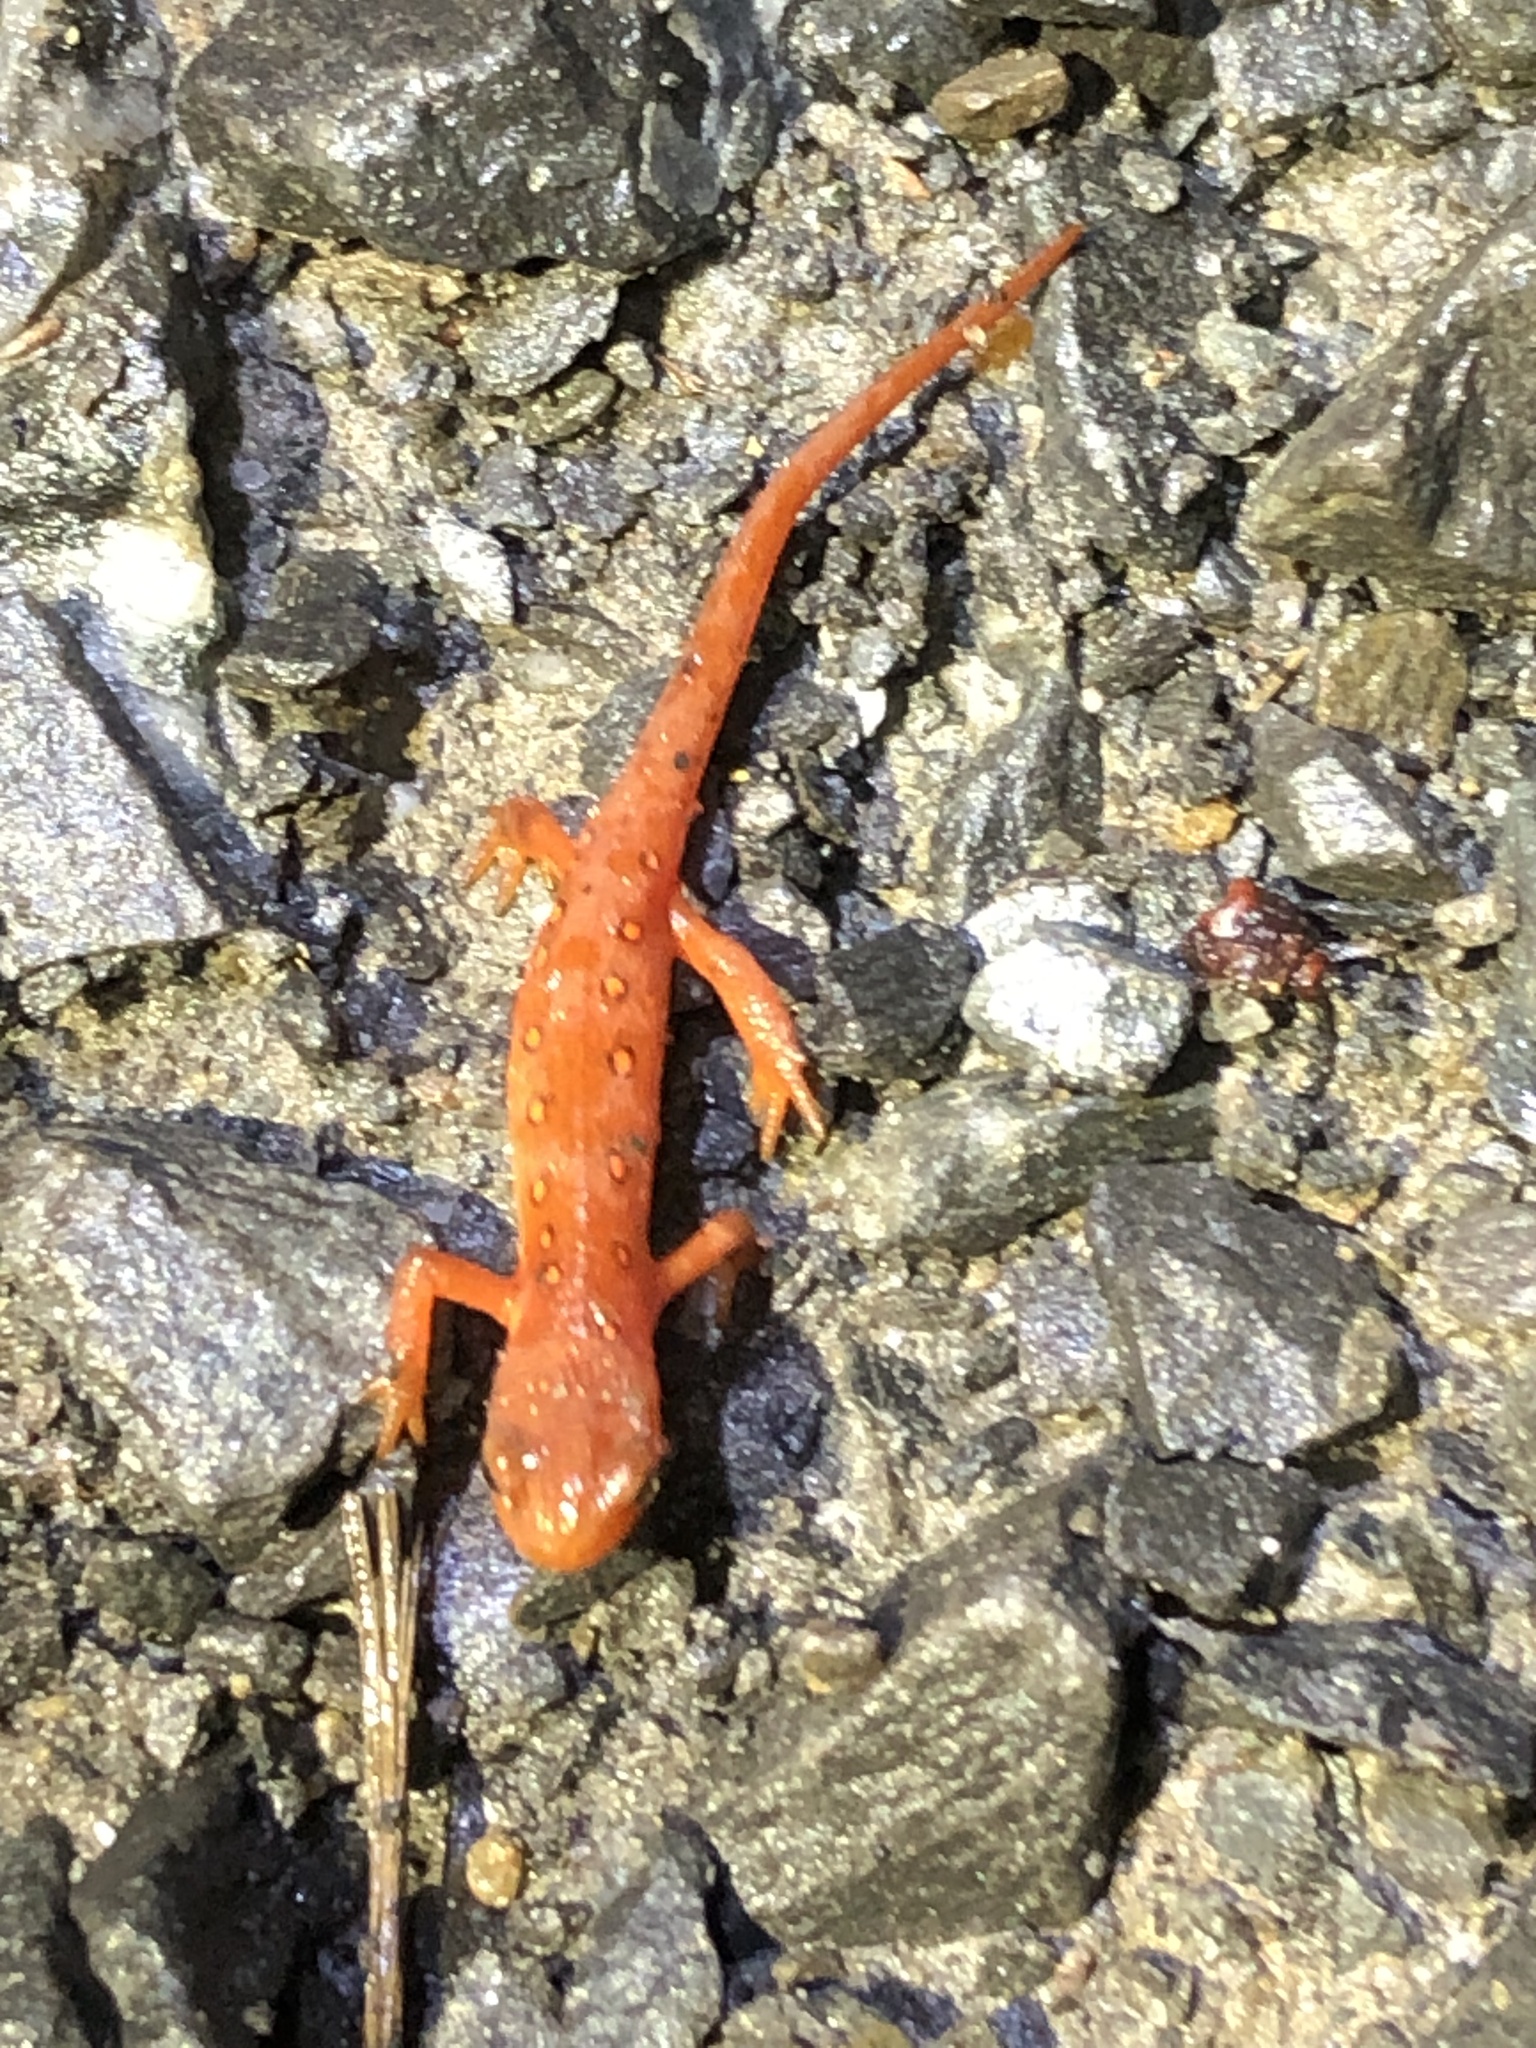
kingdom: Animalia
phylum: Chordata
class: Amphibia
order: Caudata
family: Salamandridae
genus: Notophthalmus
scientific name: Notophthalmus viridescens
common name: Eastern newt
